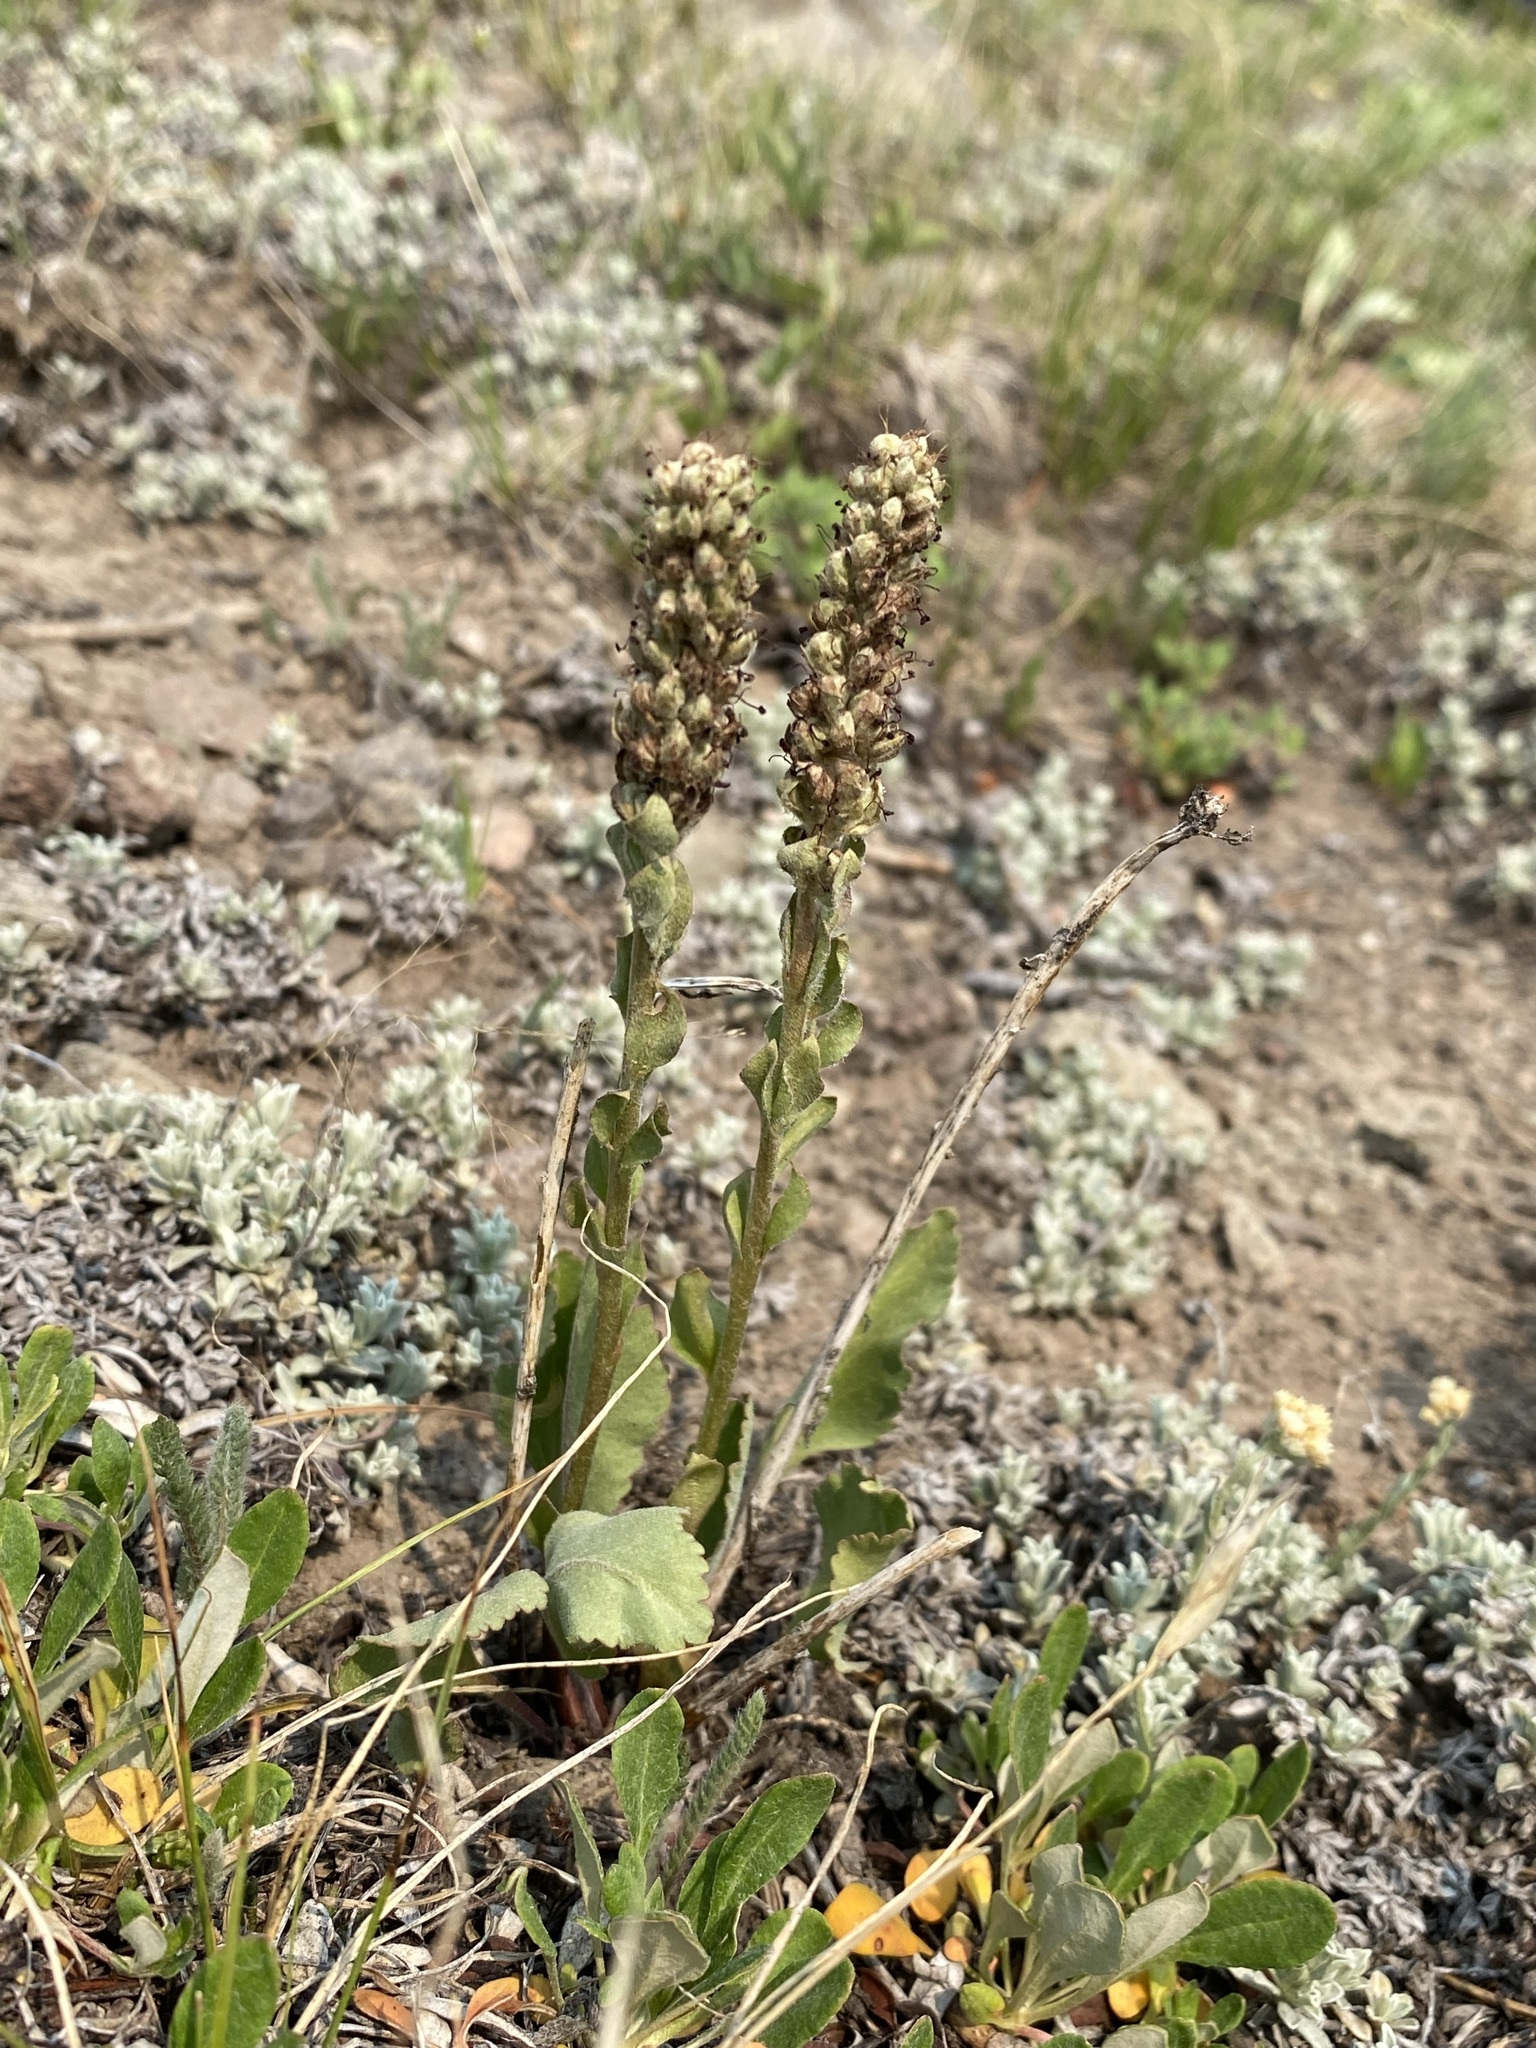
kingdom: Plantae
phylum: Tracheophyta
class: Magnoliopsida
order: Lamiales
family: Plantaginaceae
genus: Synthyris
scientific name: Synthyris wyomingensis
